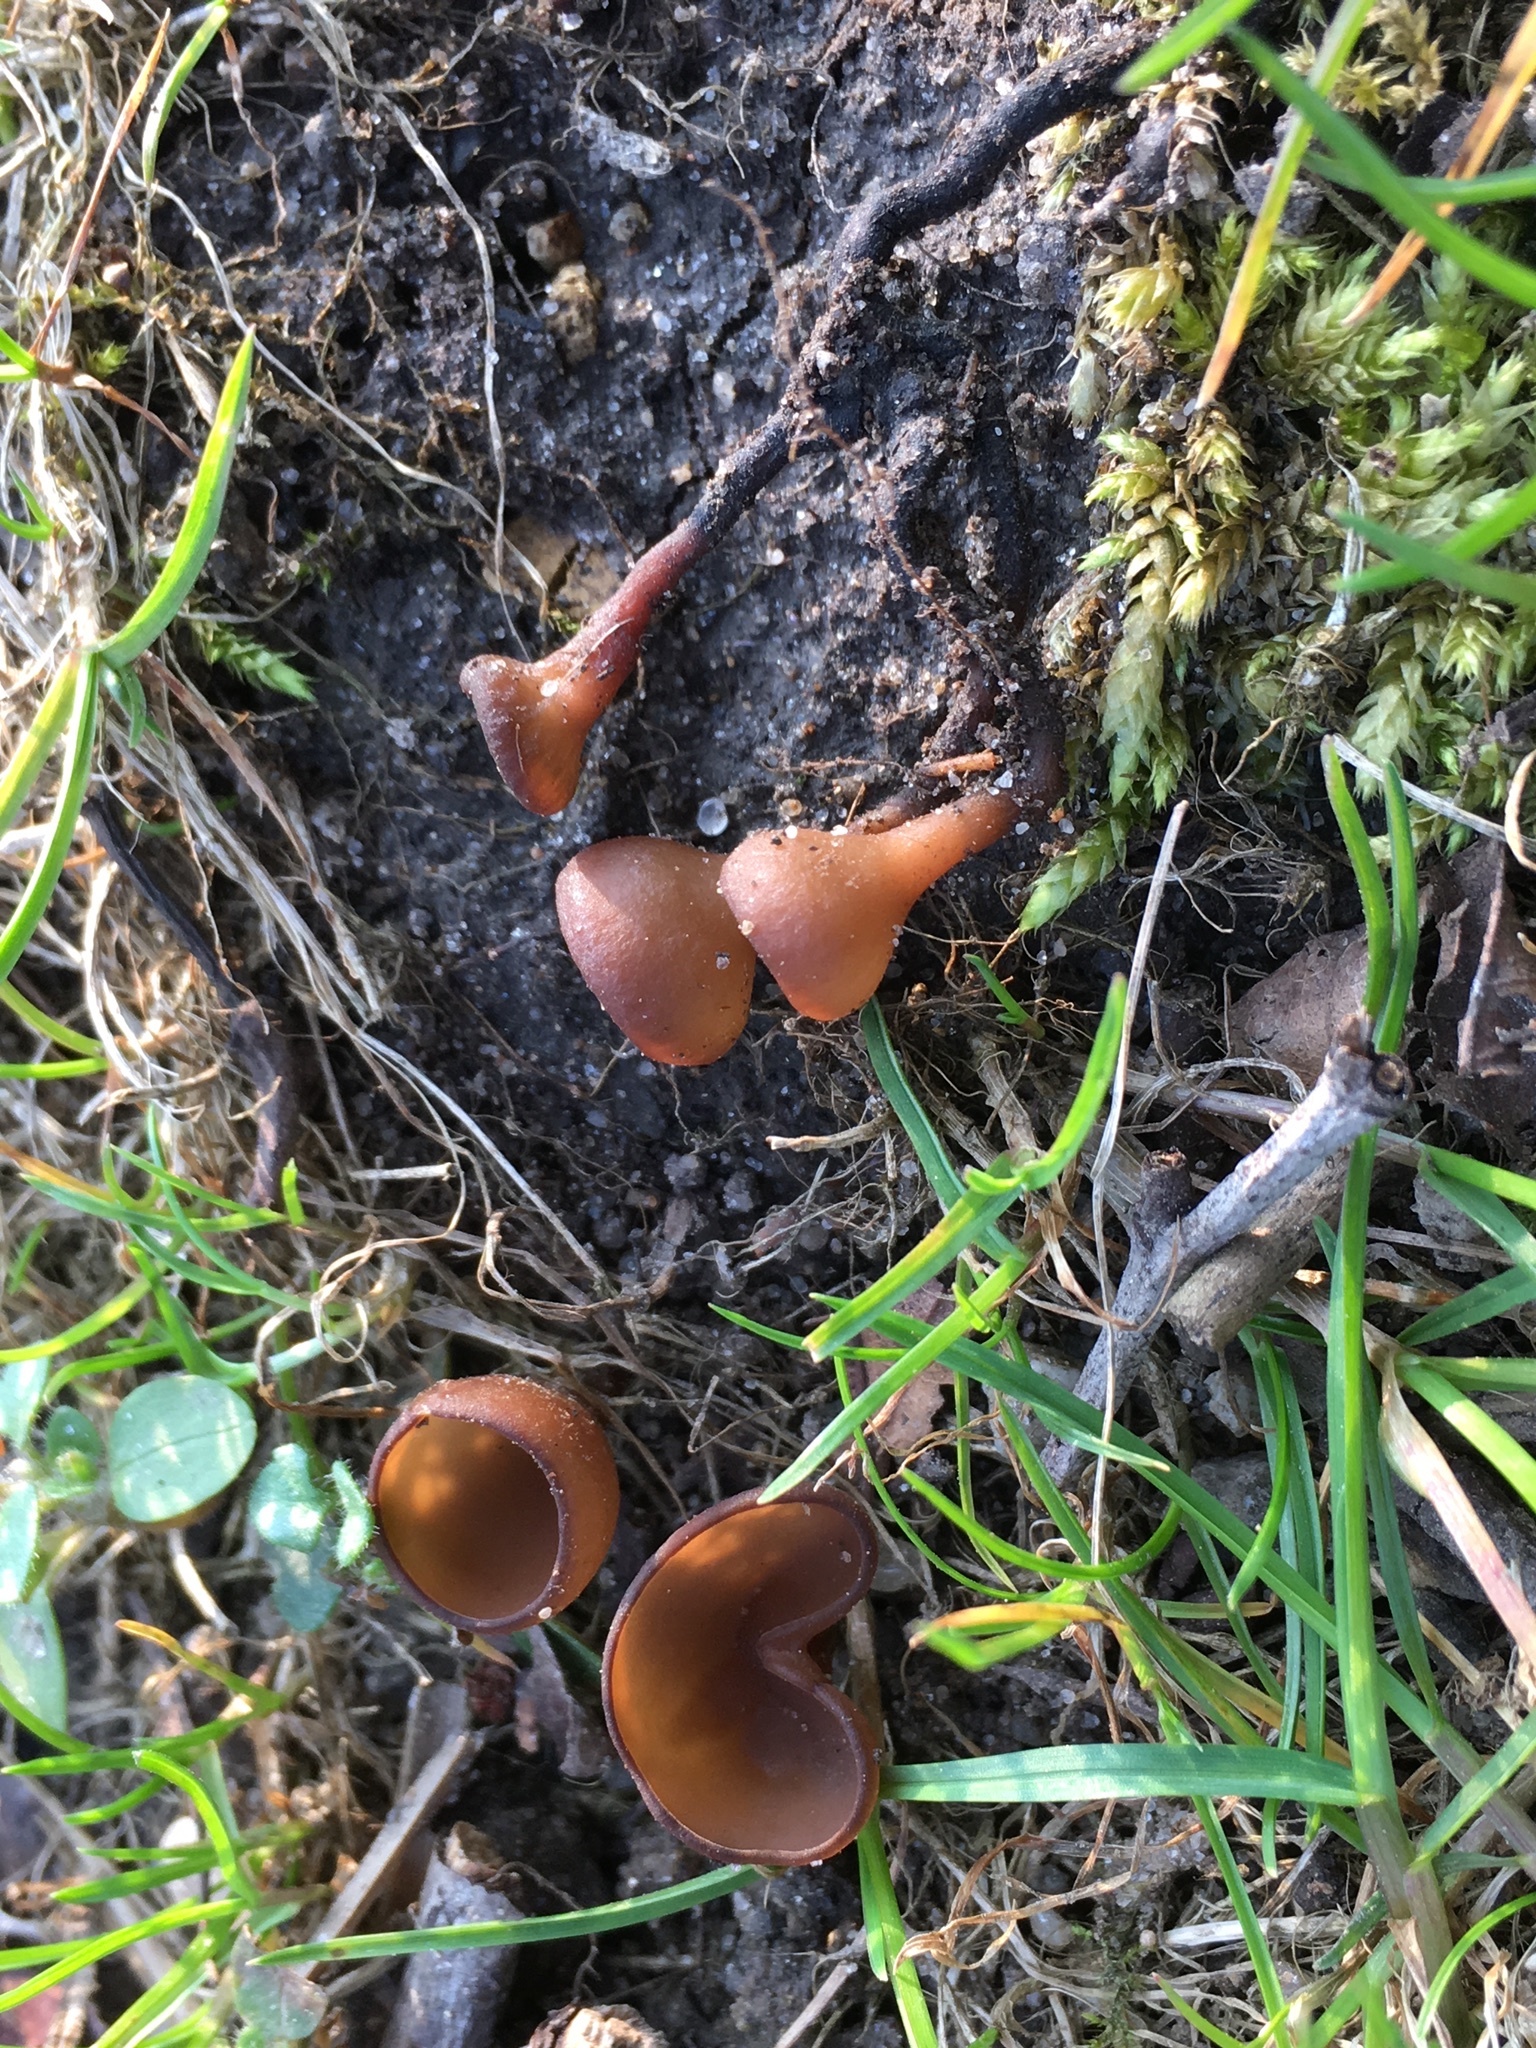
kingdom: Fungi
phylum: Ascomycota
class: Leotiomycetes
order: Helotiales
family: Sclerotiniaceae
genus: Dumontinia
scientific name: Dumontinia tuberosa
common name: Anemone cup
